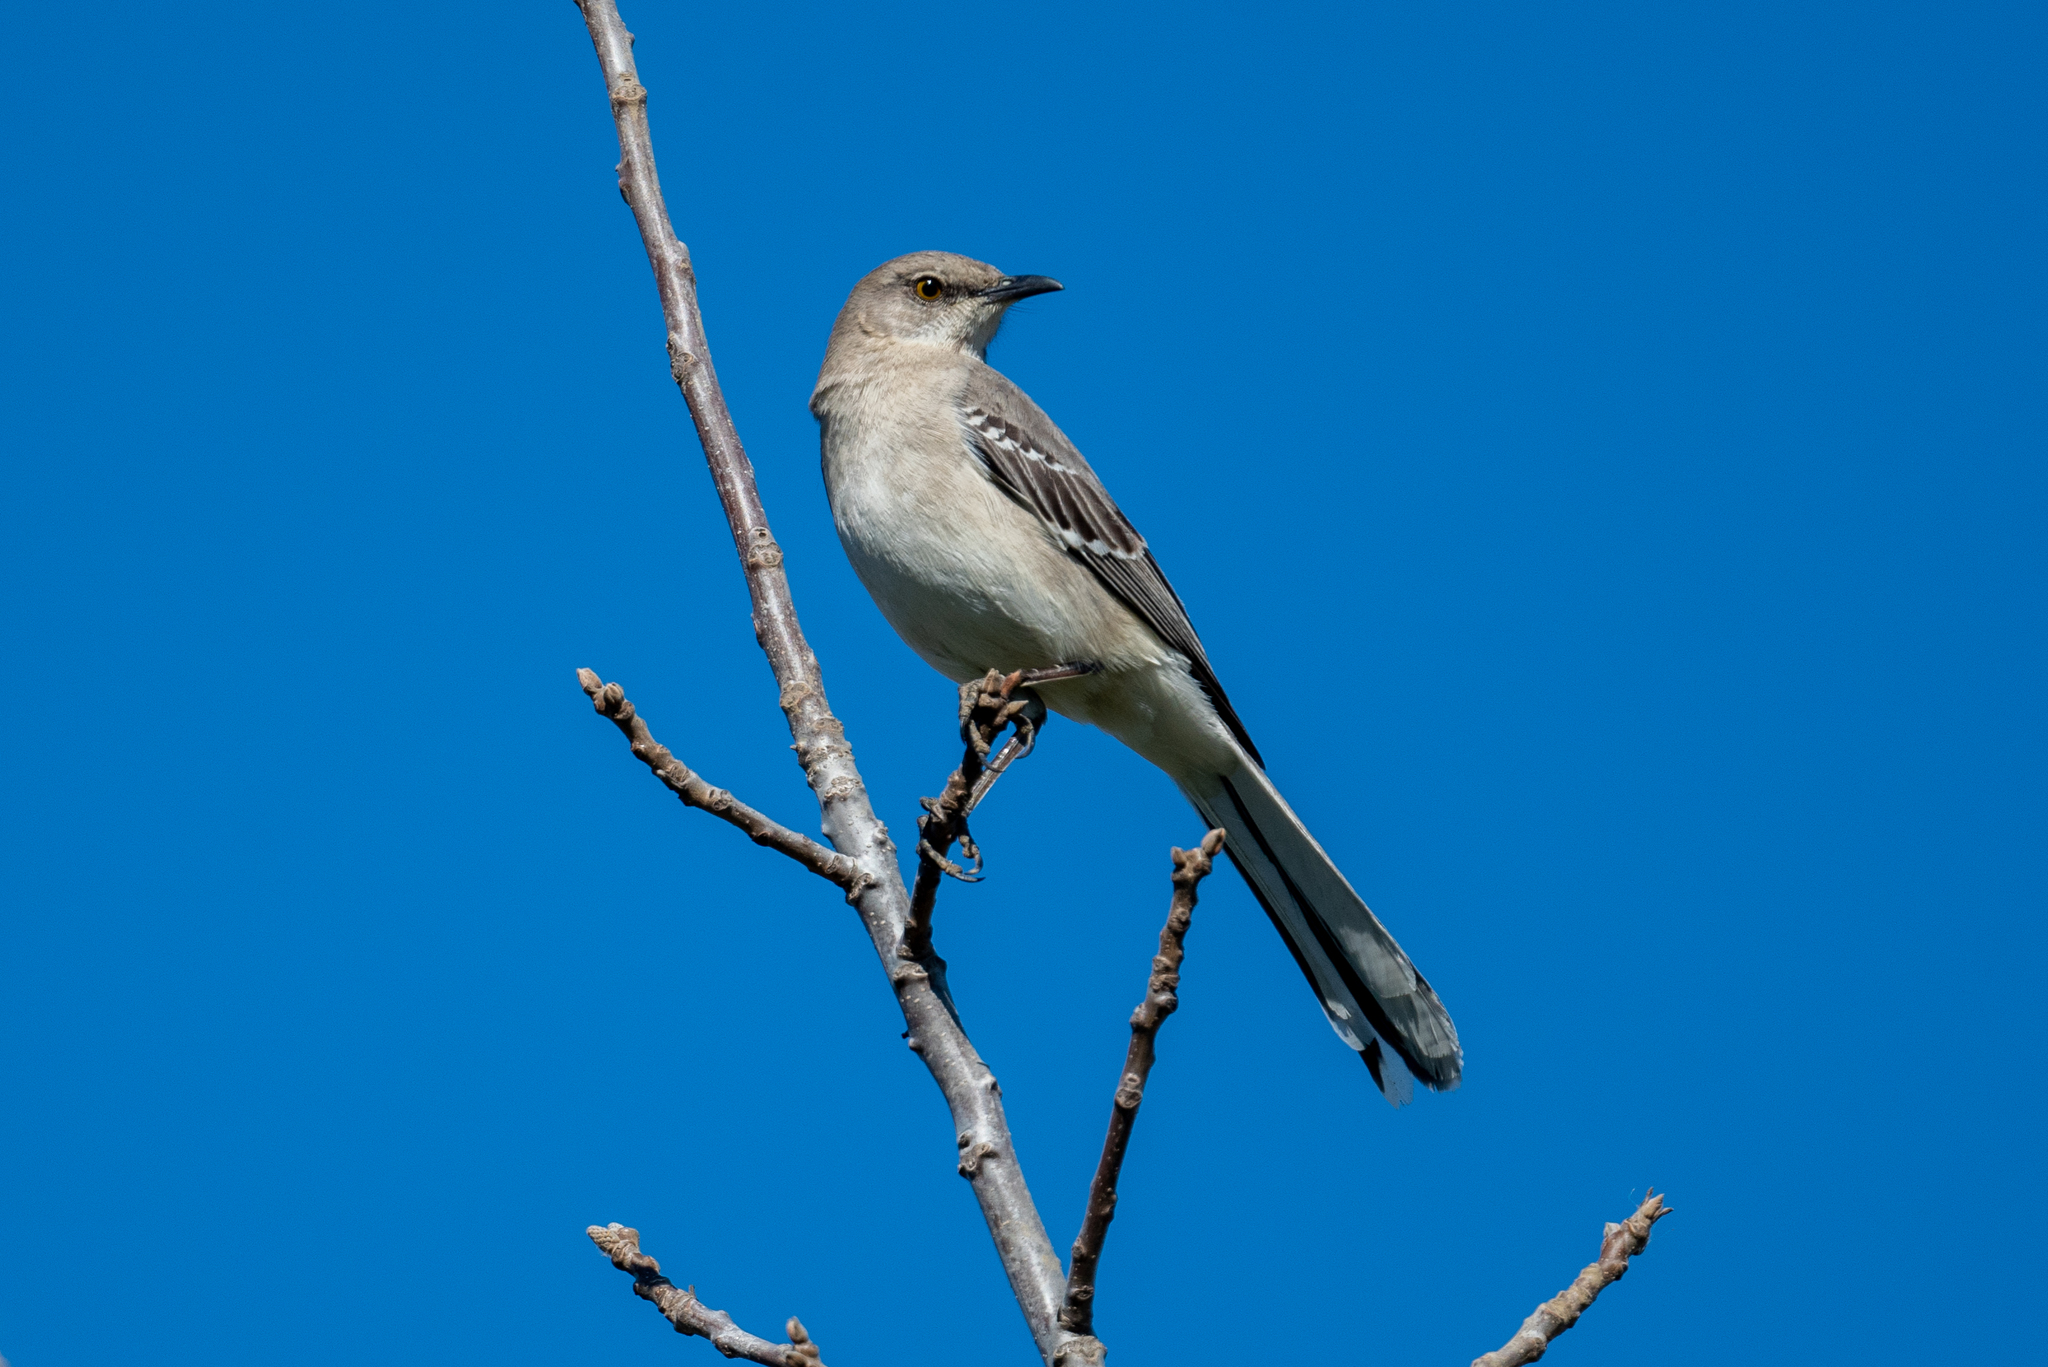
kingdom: Animalia
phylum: Chordata
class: Aves
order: Passeriformes
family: Mimidae
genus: Mimus
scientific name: Mimus polyglottos
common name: Northern mockingbird
